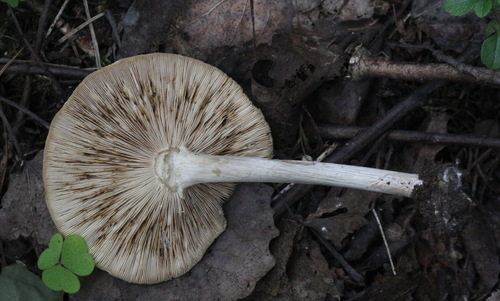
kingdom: Fungi
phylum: Basidiomycota
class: Agaricomycetes
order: Agaricales
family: Tricholomataceae
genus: Melanoleuca
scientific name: Melanoleuca strictipes
